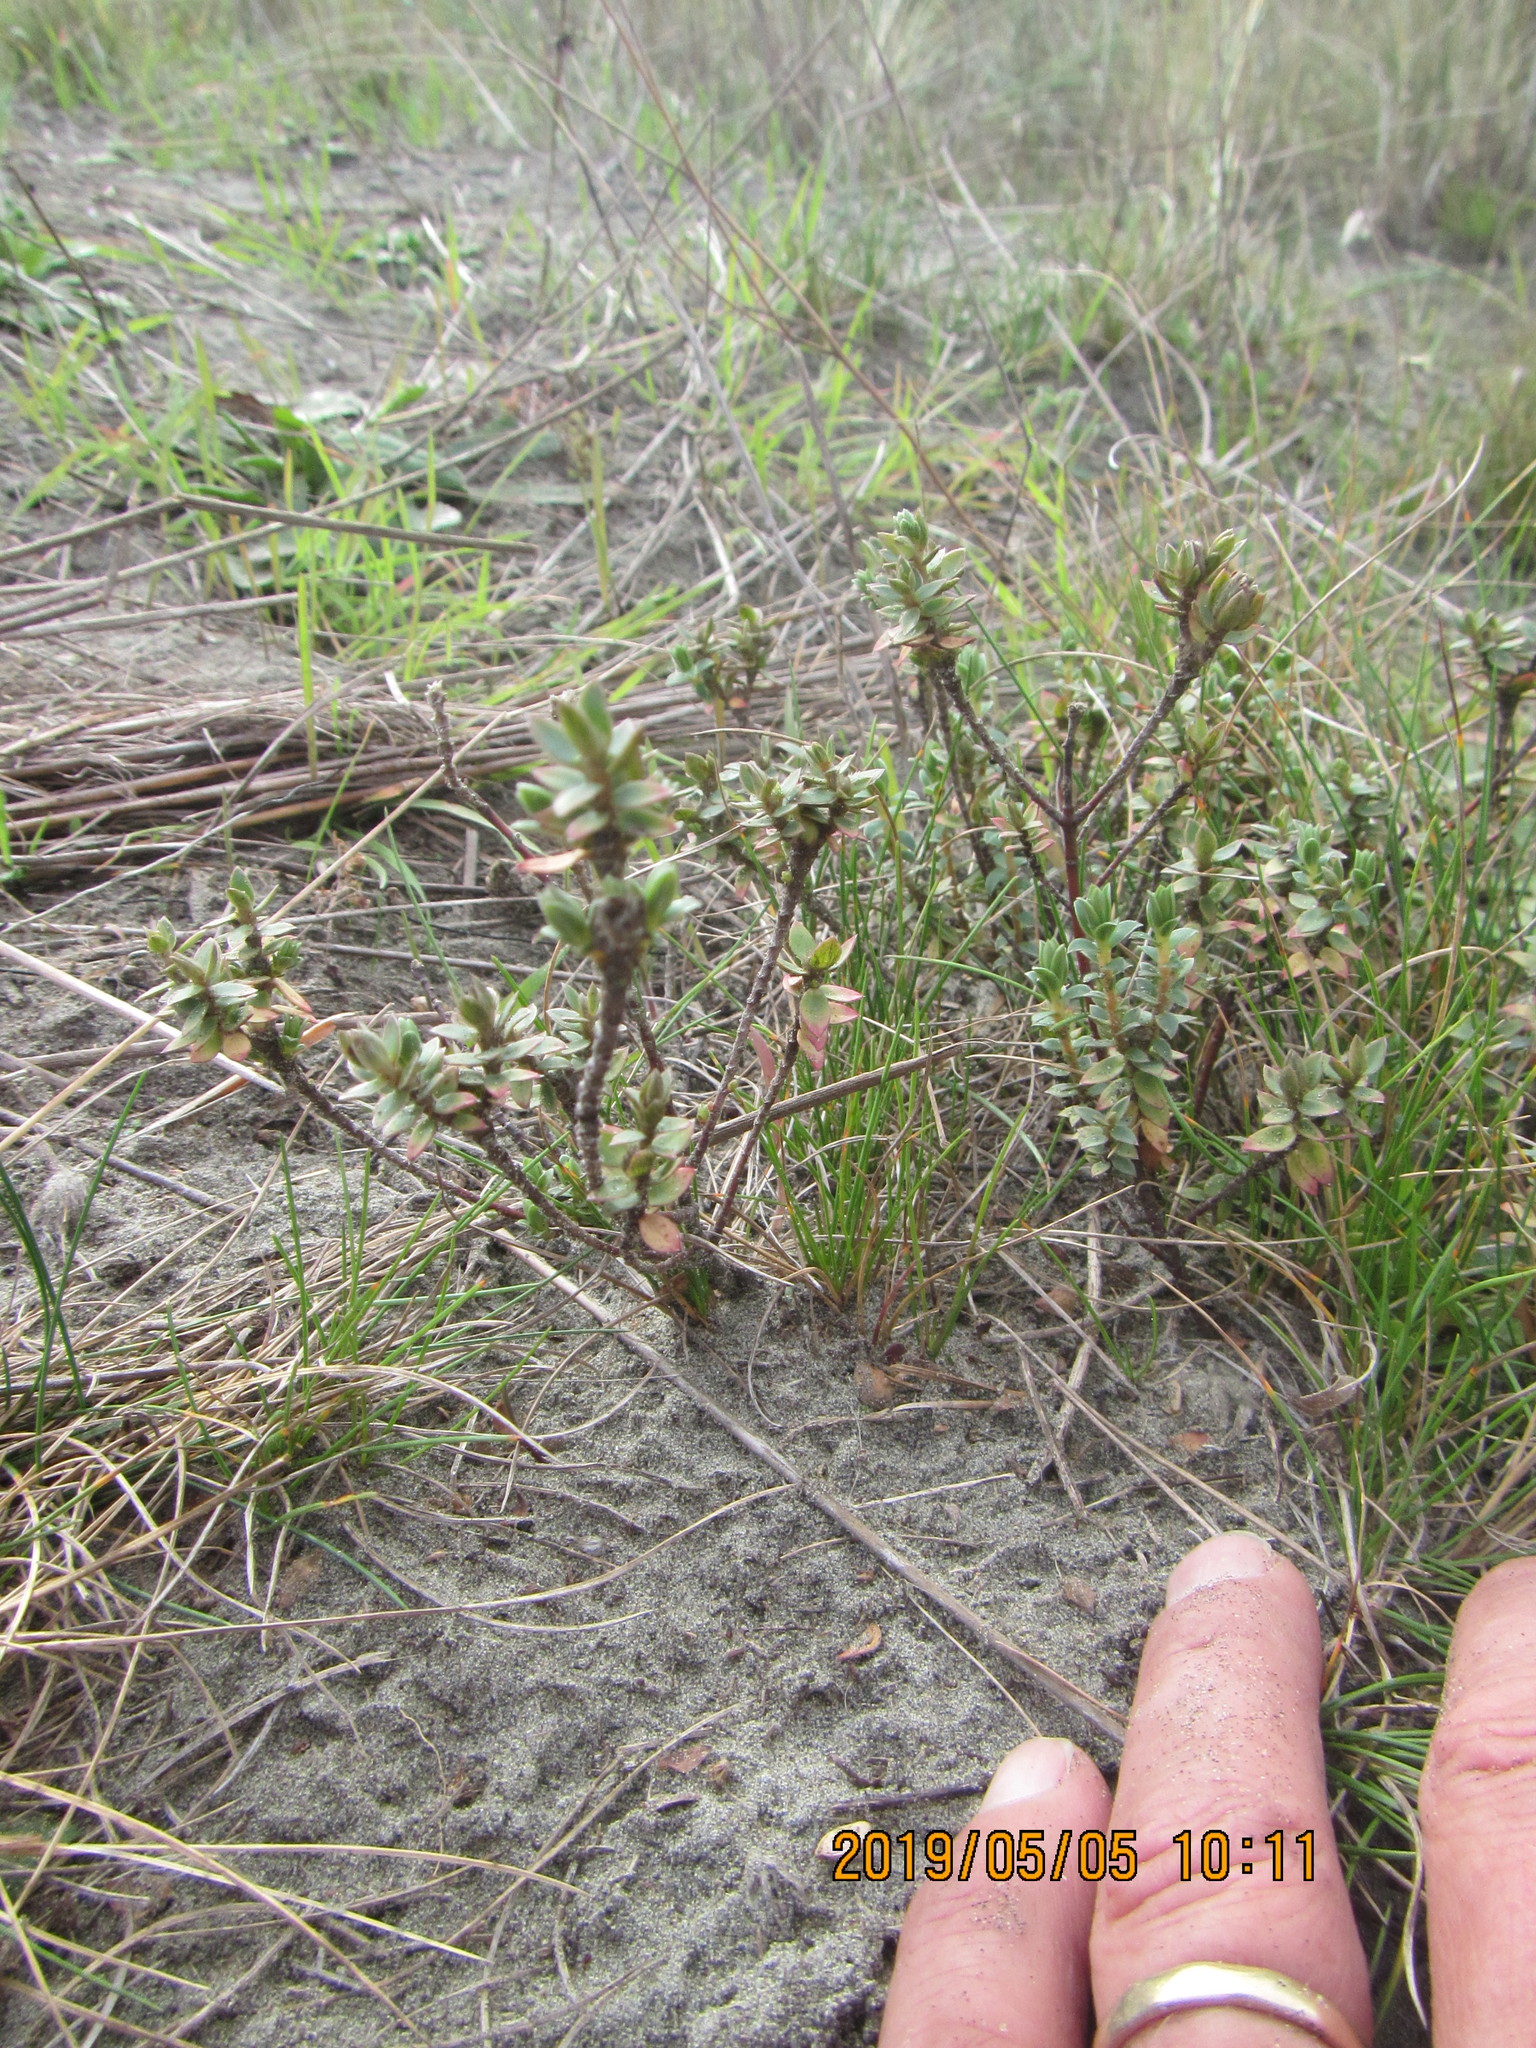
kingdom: Plantae
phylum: Tracheophyta
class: Magnoliopsida
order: Malvales
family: Thymelaeaceae
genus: Pimelea
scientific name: Pimelea villosa
